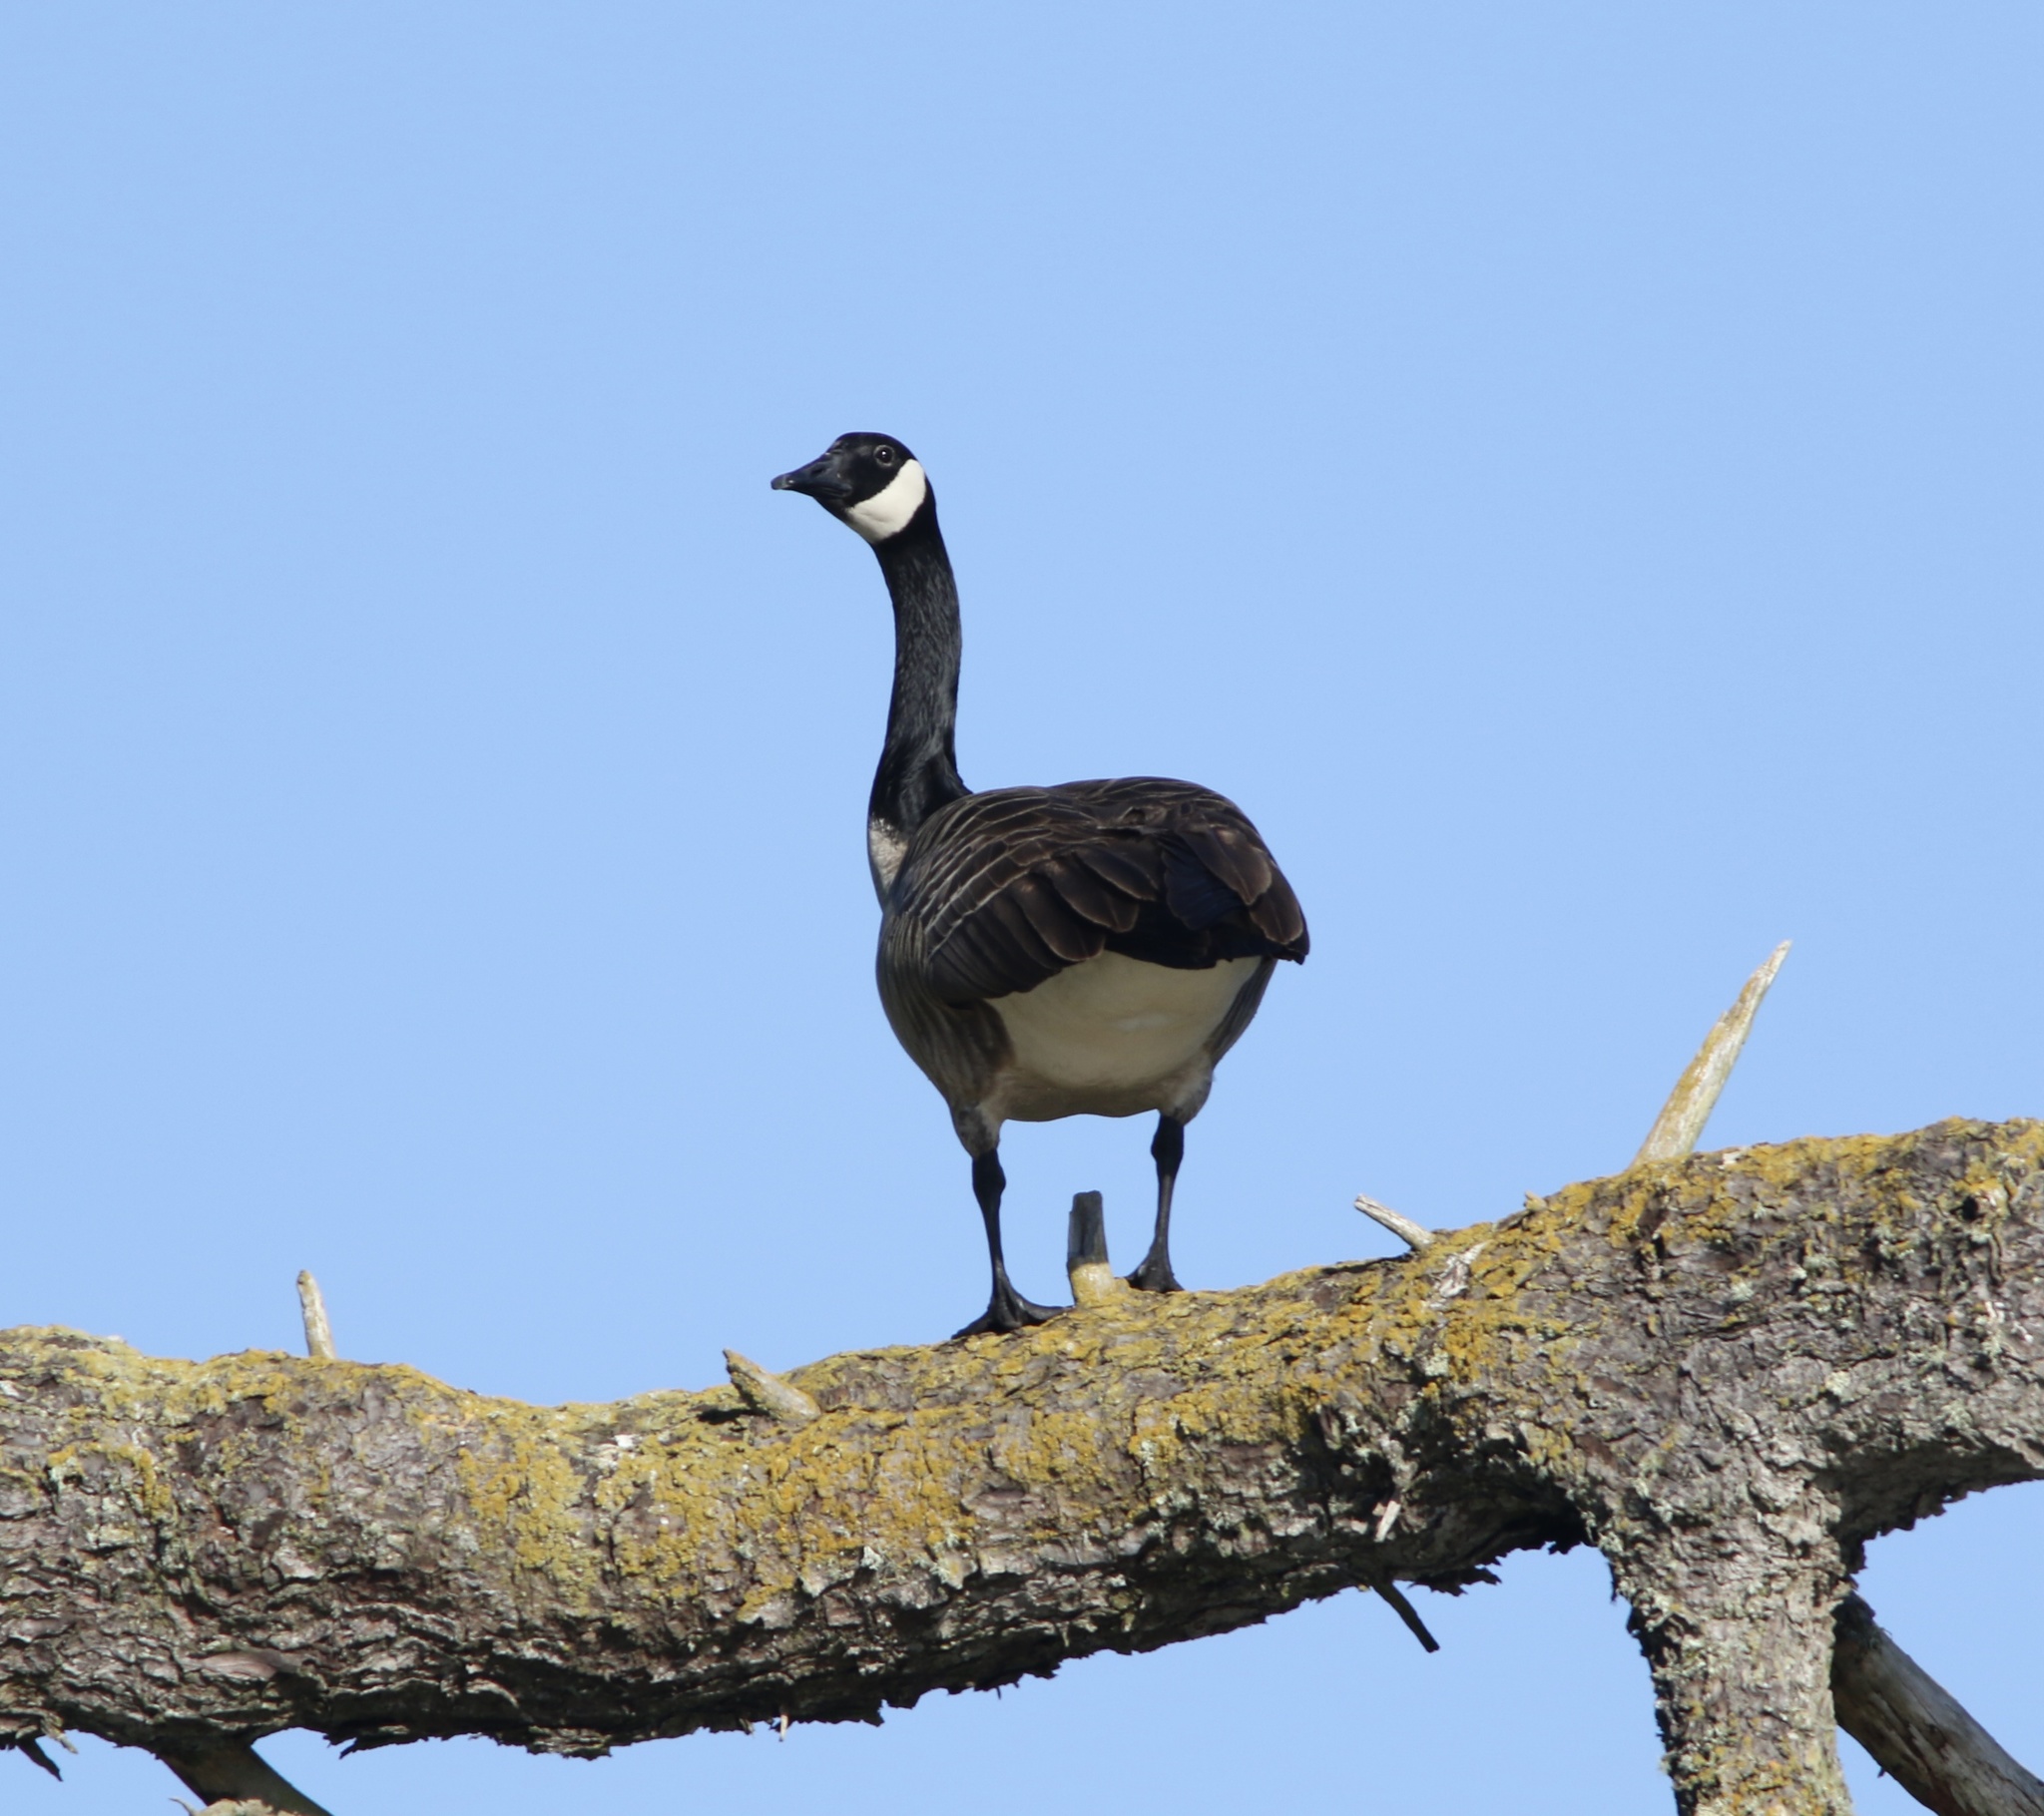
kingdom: Animalia
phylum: Chordata
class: Aves
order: Anseriformes
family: Anatidae
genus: Branta
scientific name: Branta canadensis
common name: Canada goose
